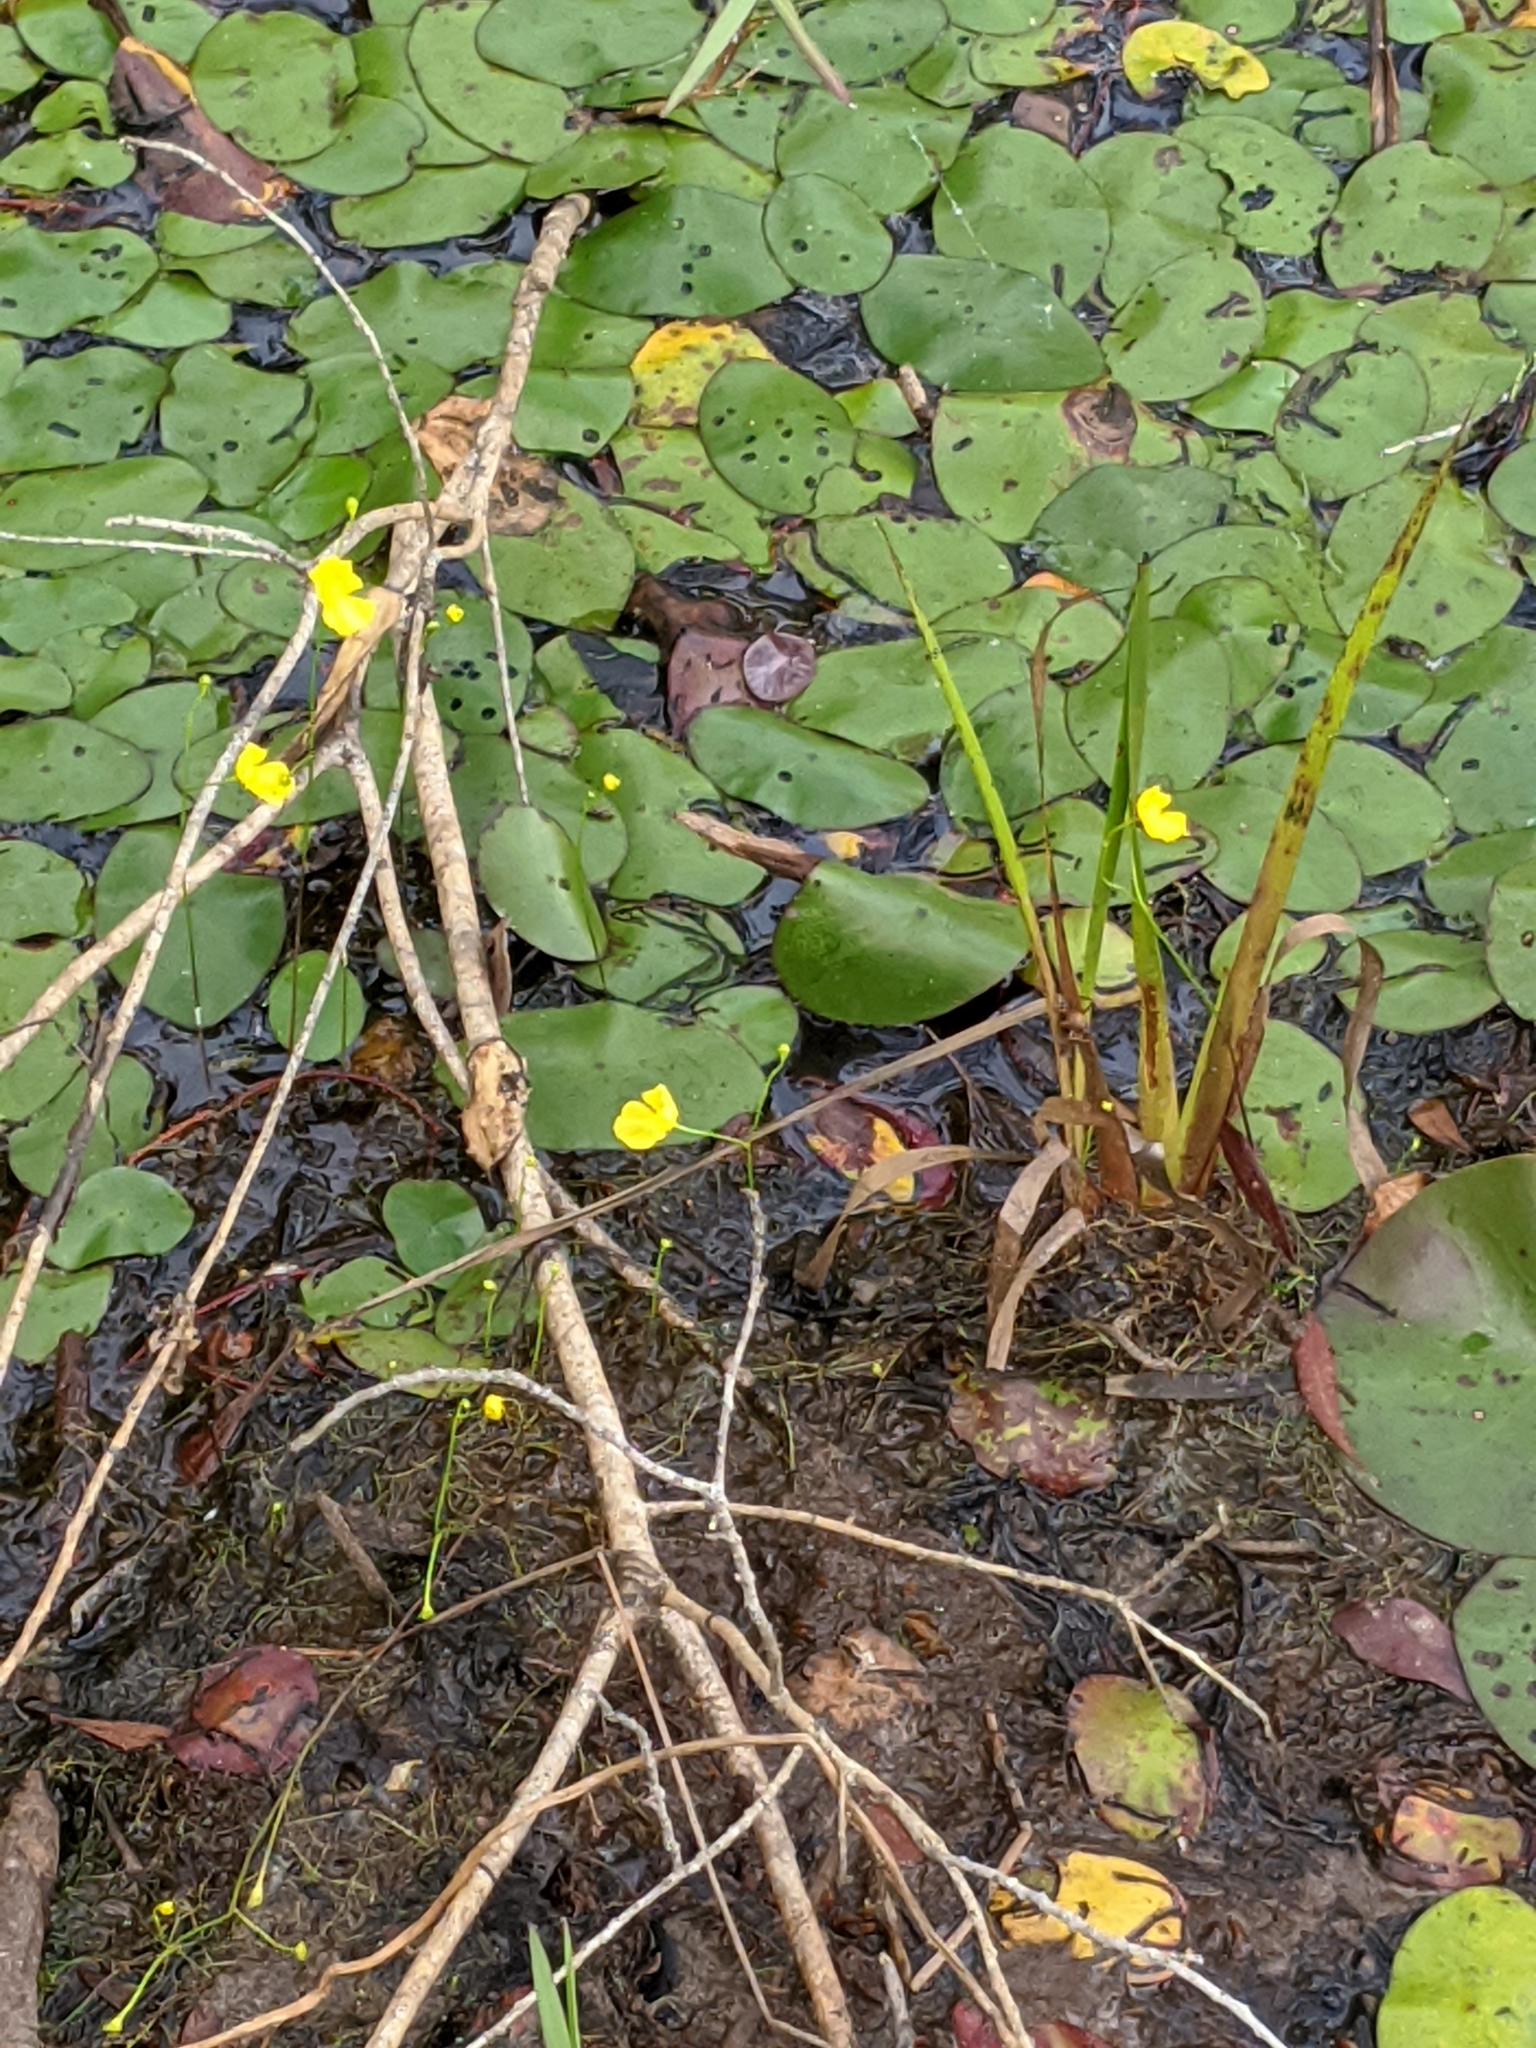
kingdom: Plantae
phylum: Tracheophyta
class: Magnoliopsida
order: Lamiales
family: Lentibulariaceae
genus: Utricularia
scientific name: Utricularia gibba
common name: Humped bladderwort
